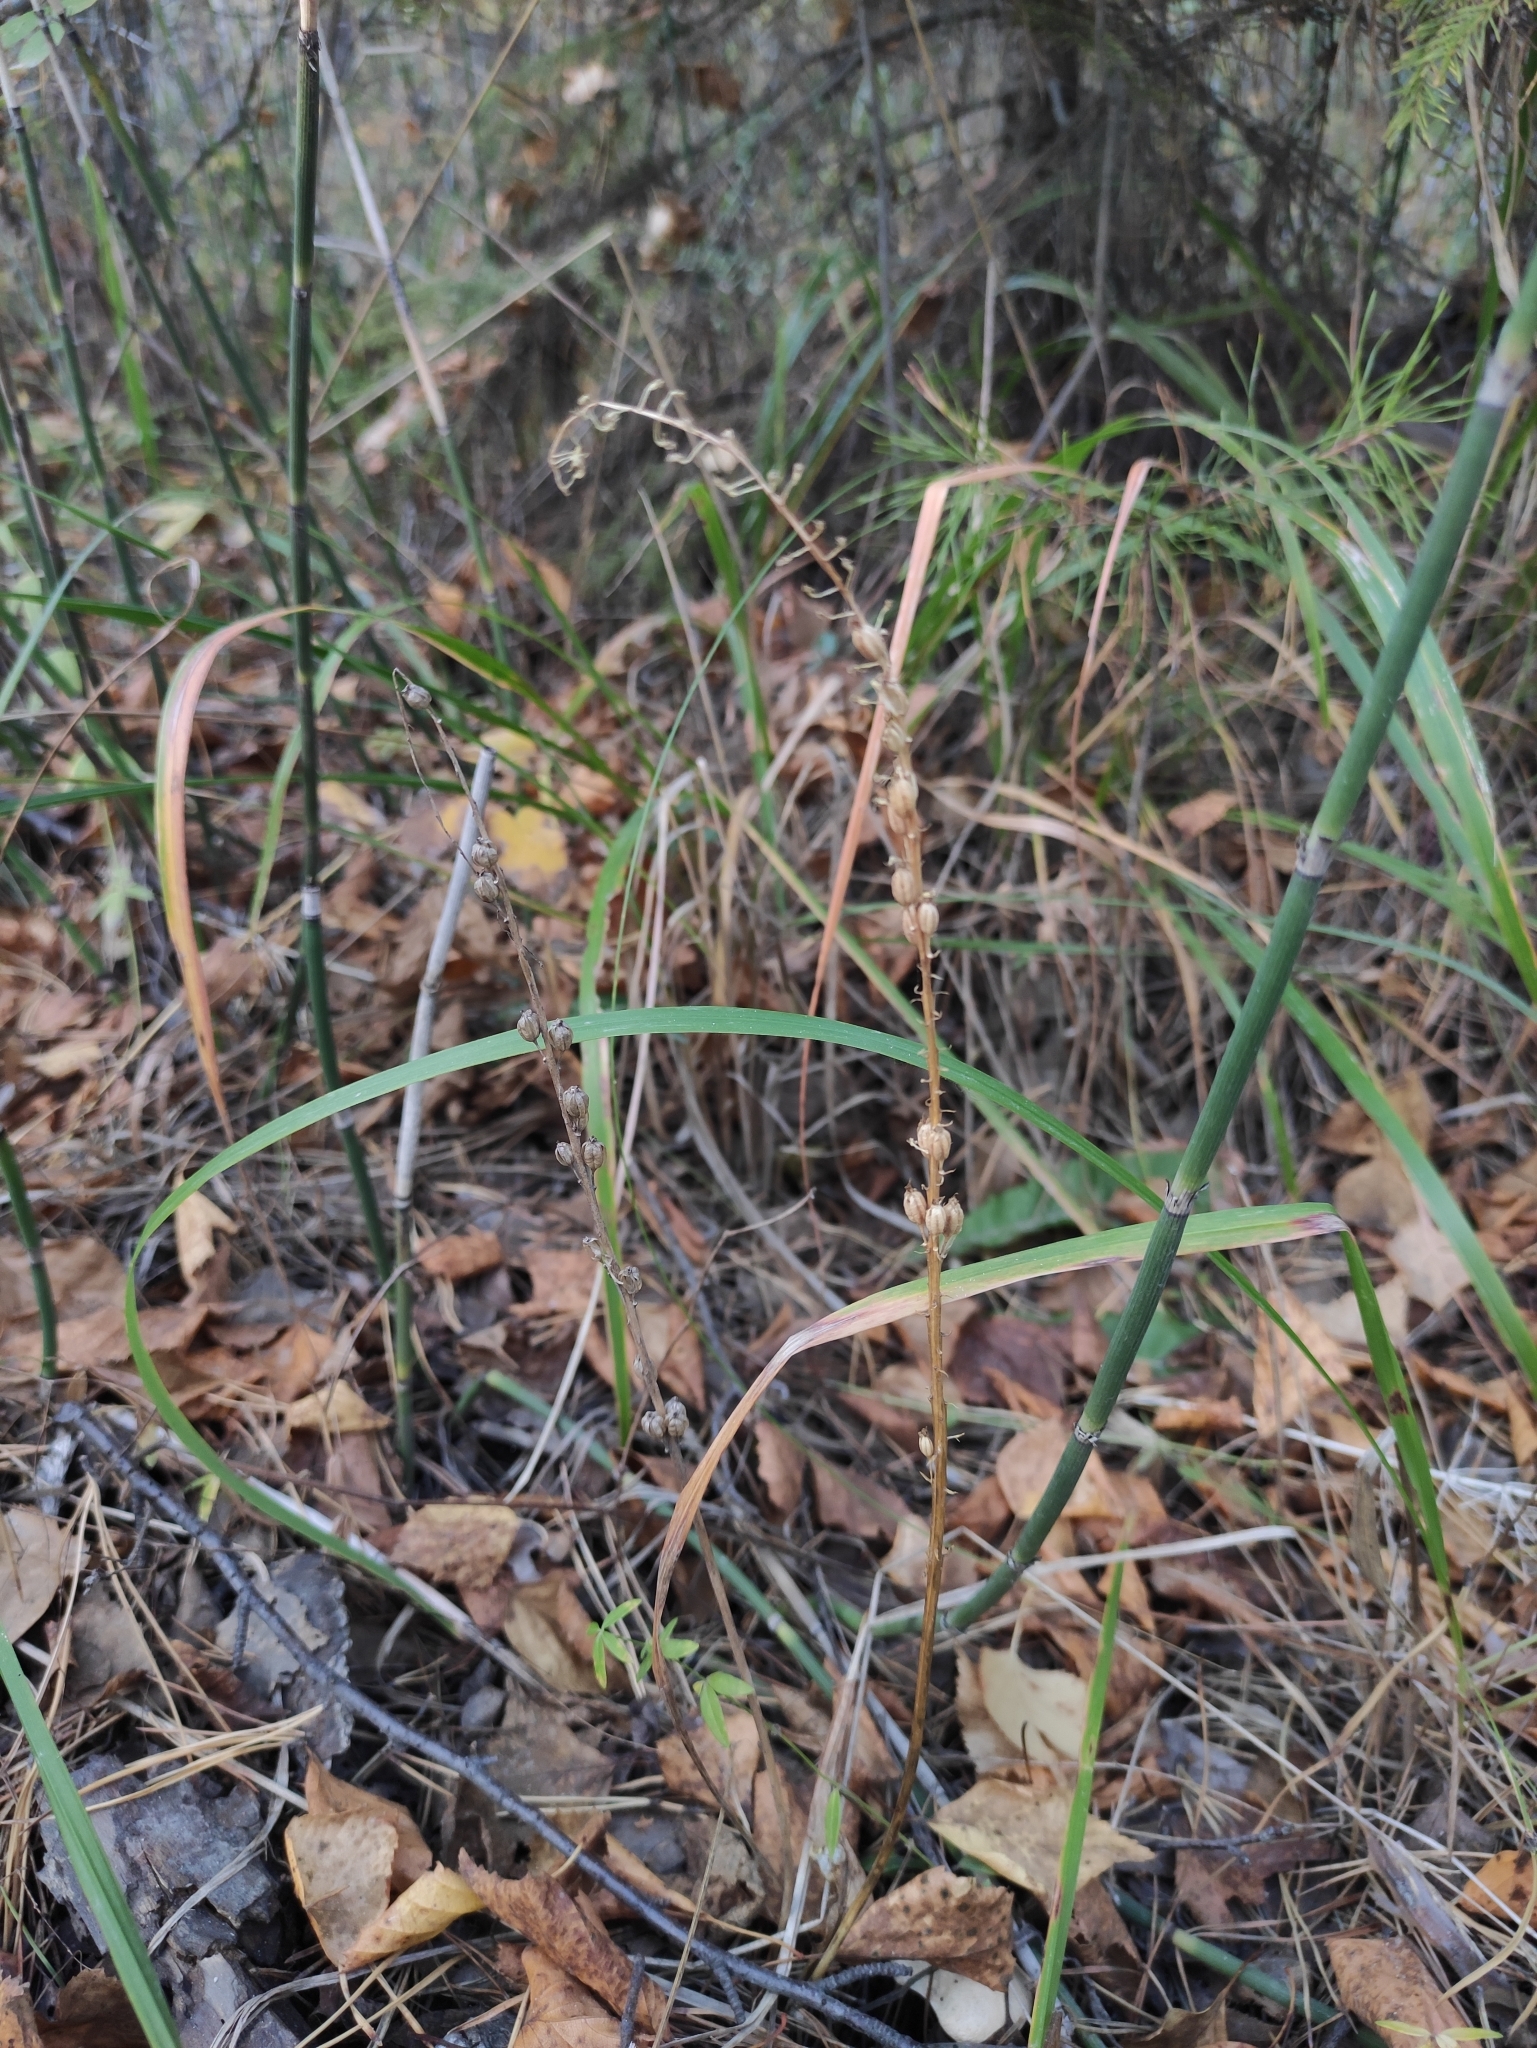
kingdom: Plantae
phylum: Tracheophyta
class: Liliopsida
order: Asparagales
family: Orchidaceae
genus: Malaxis
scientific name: Malaxis monophyllos
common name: White adder's-mouth
